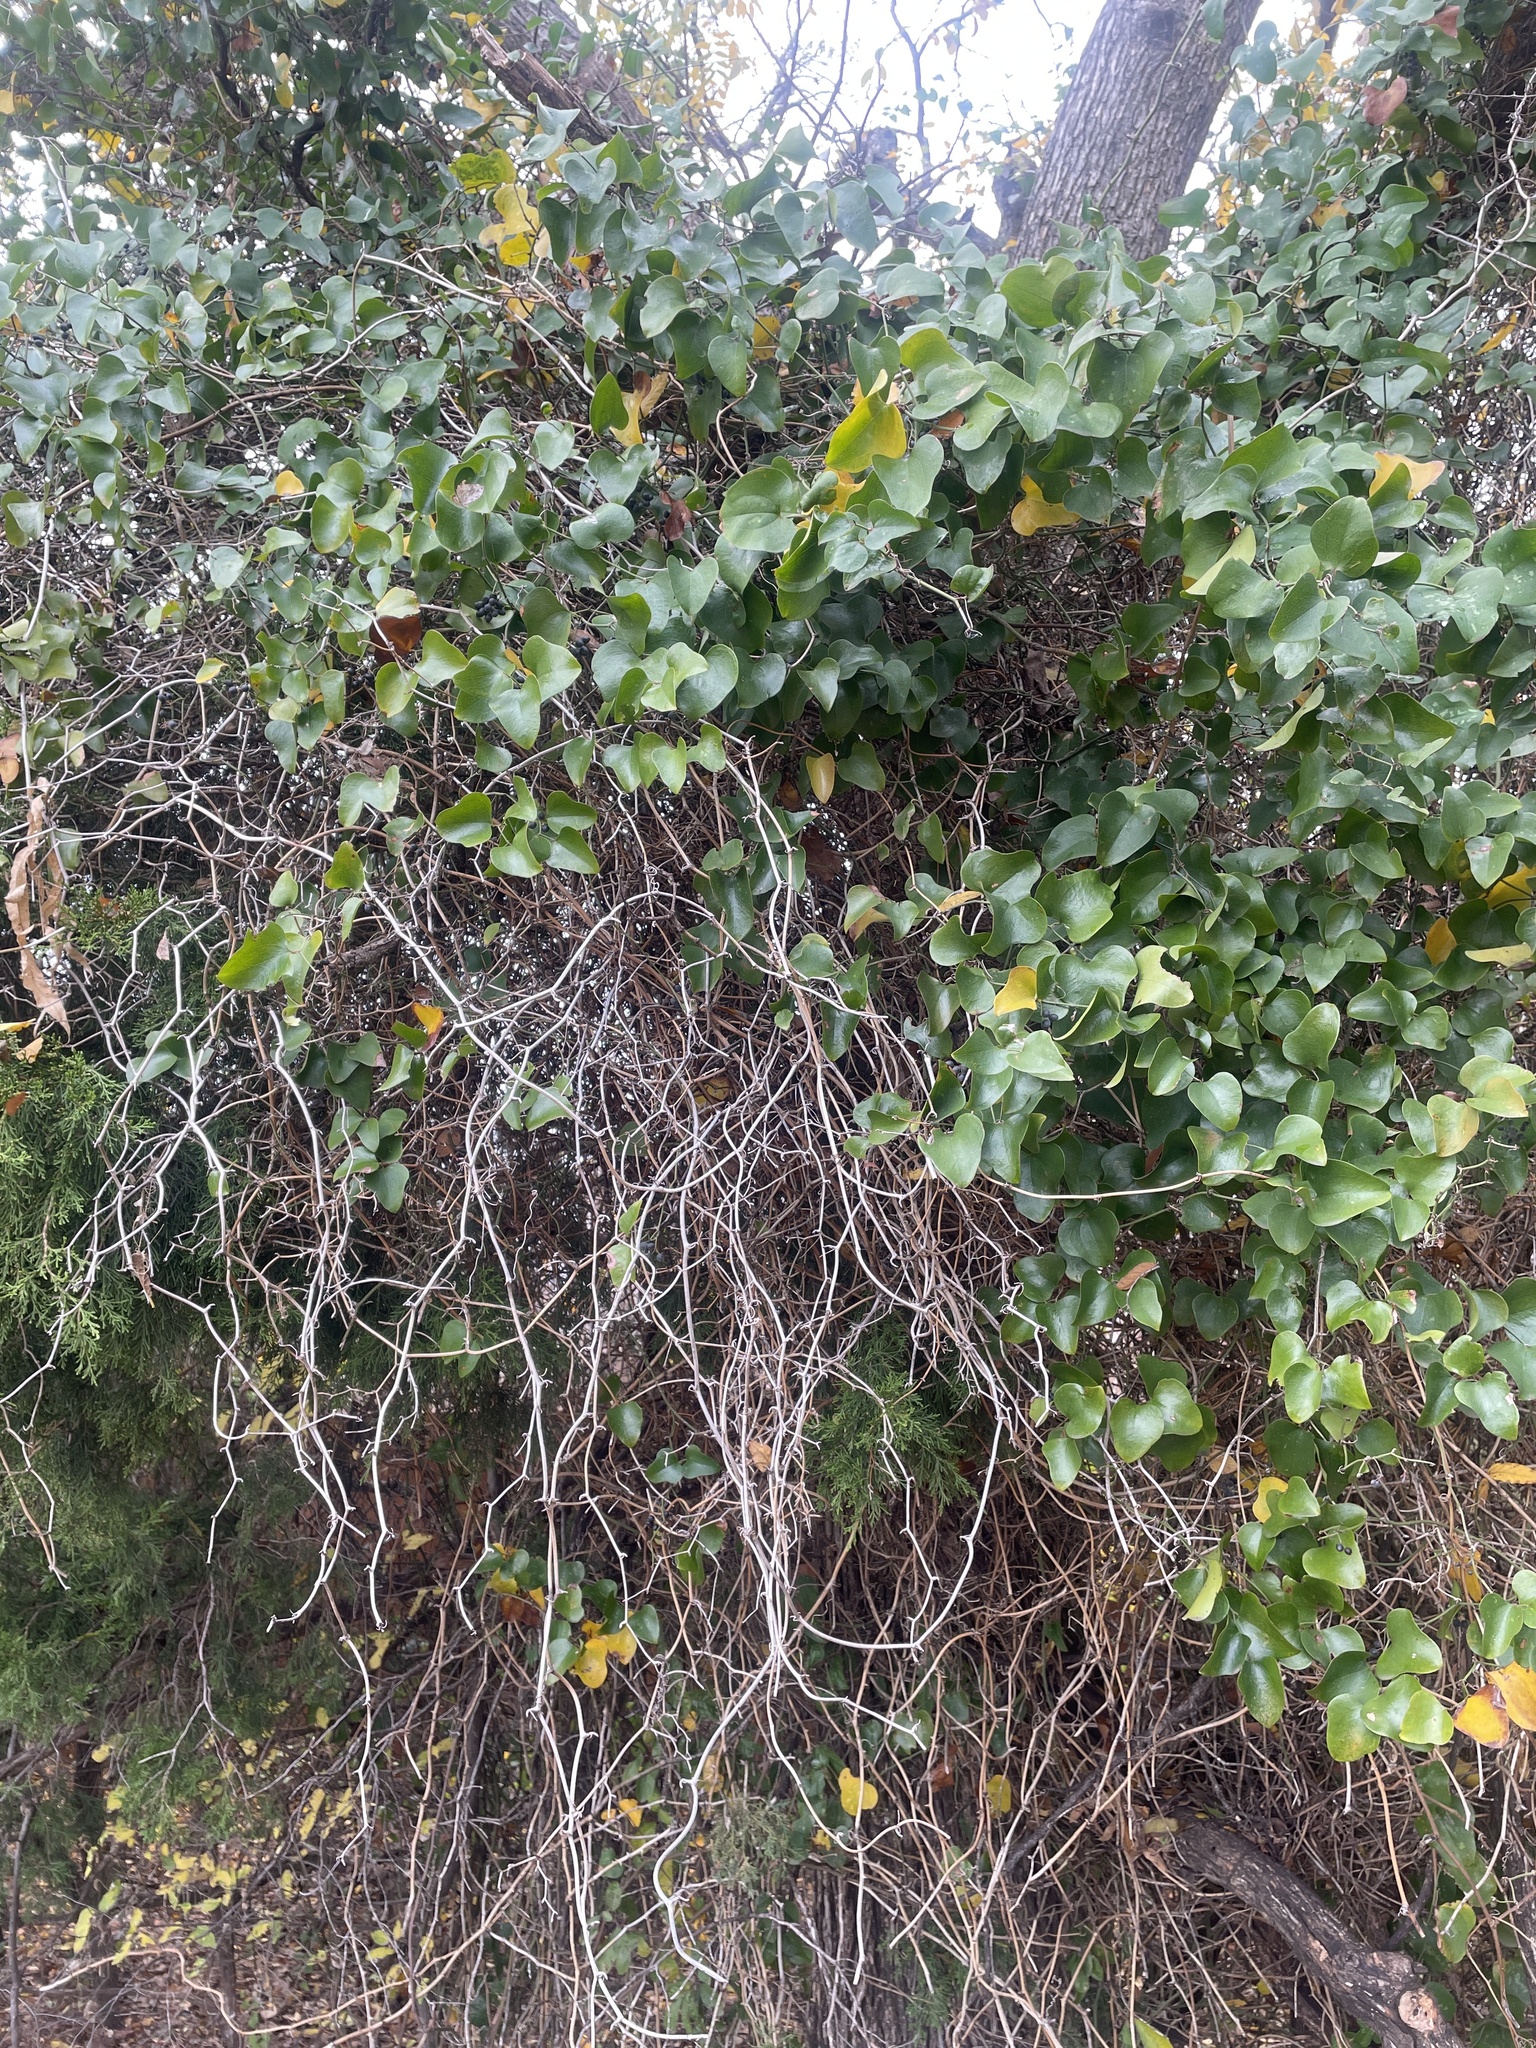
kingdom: Plantae
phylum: Tracheophyta
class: Liliopsida
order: Liliales
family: Smilacaceae
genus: Smilax
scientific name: Smilax bona-nox
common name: Catbrier
